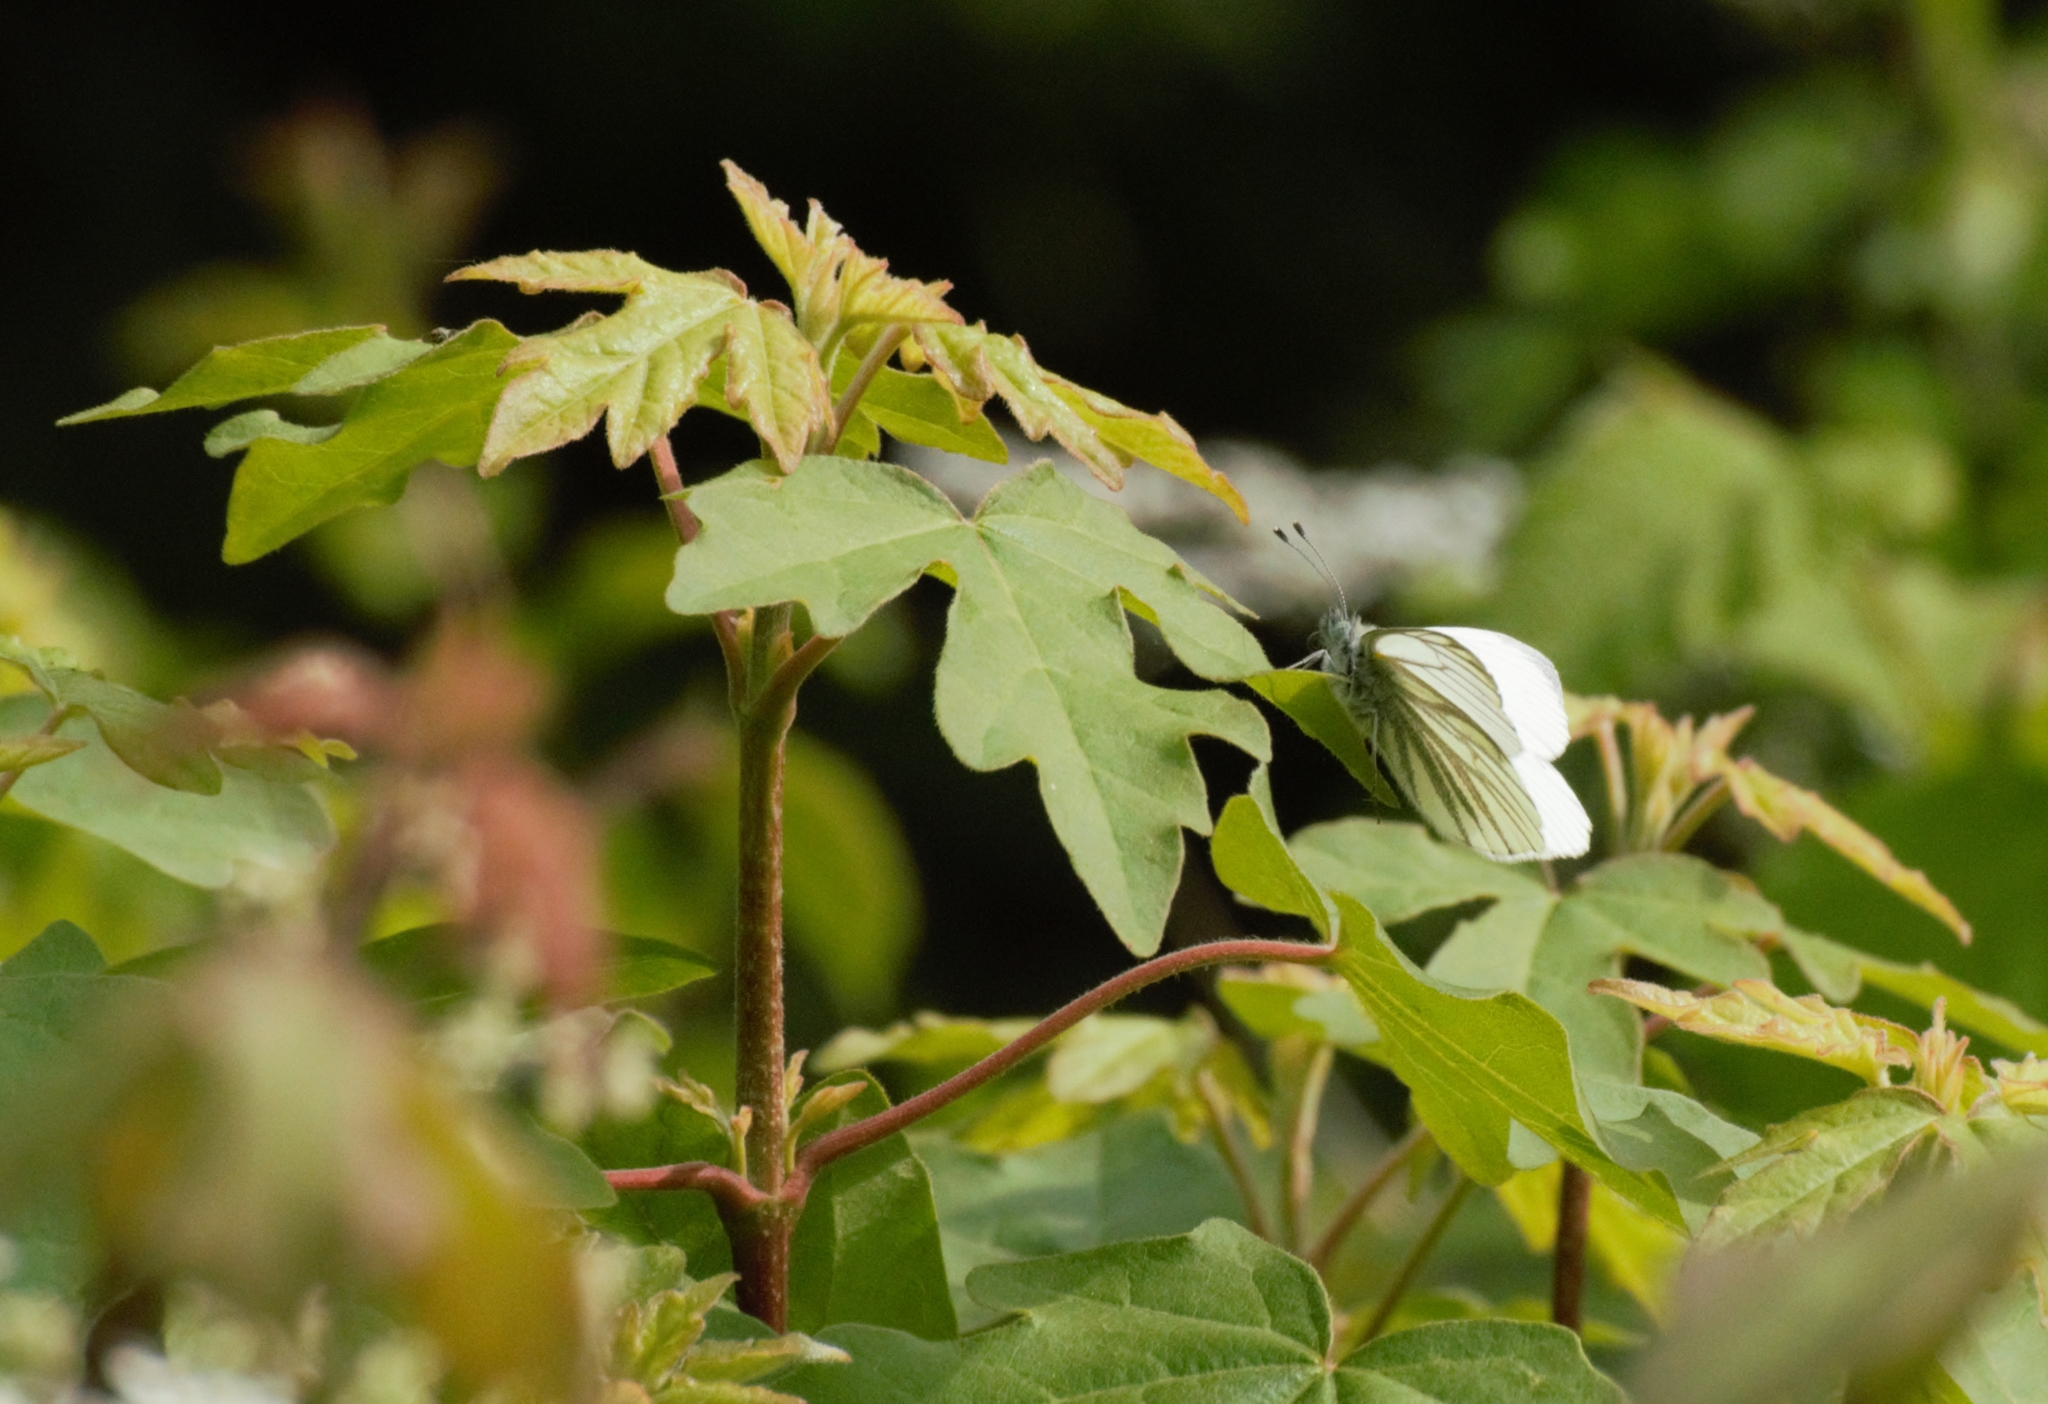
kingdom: Animalia
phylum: Arthropoda
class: Insecta
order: Lepidoptera
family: Pieridae
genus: Pieris
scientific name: Pieris napi
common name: Green-veined white
